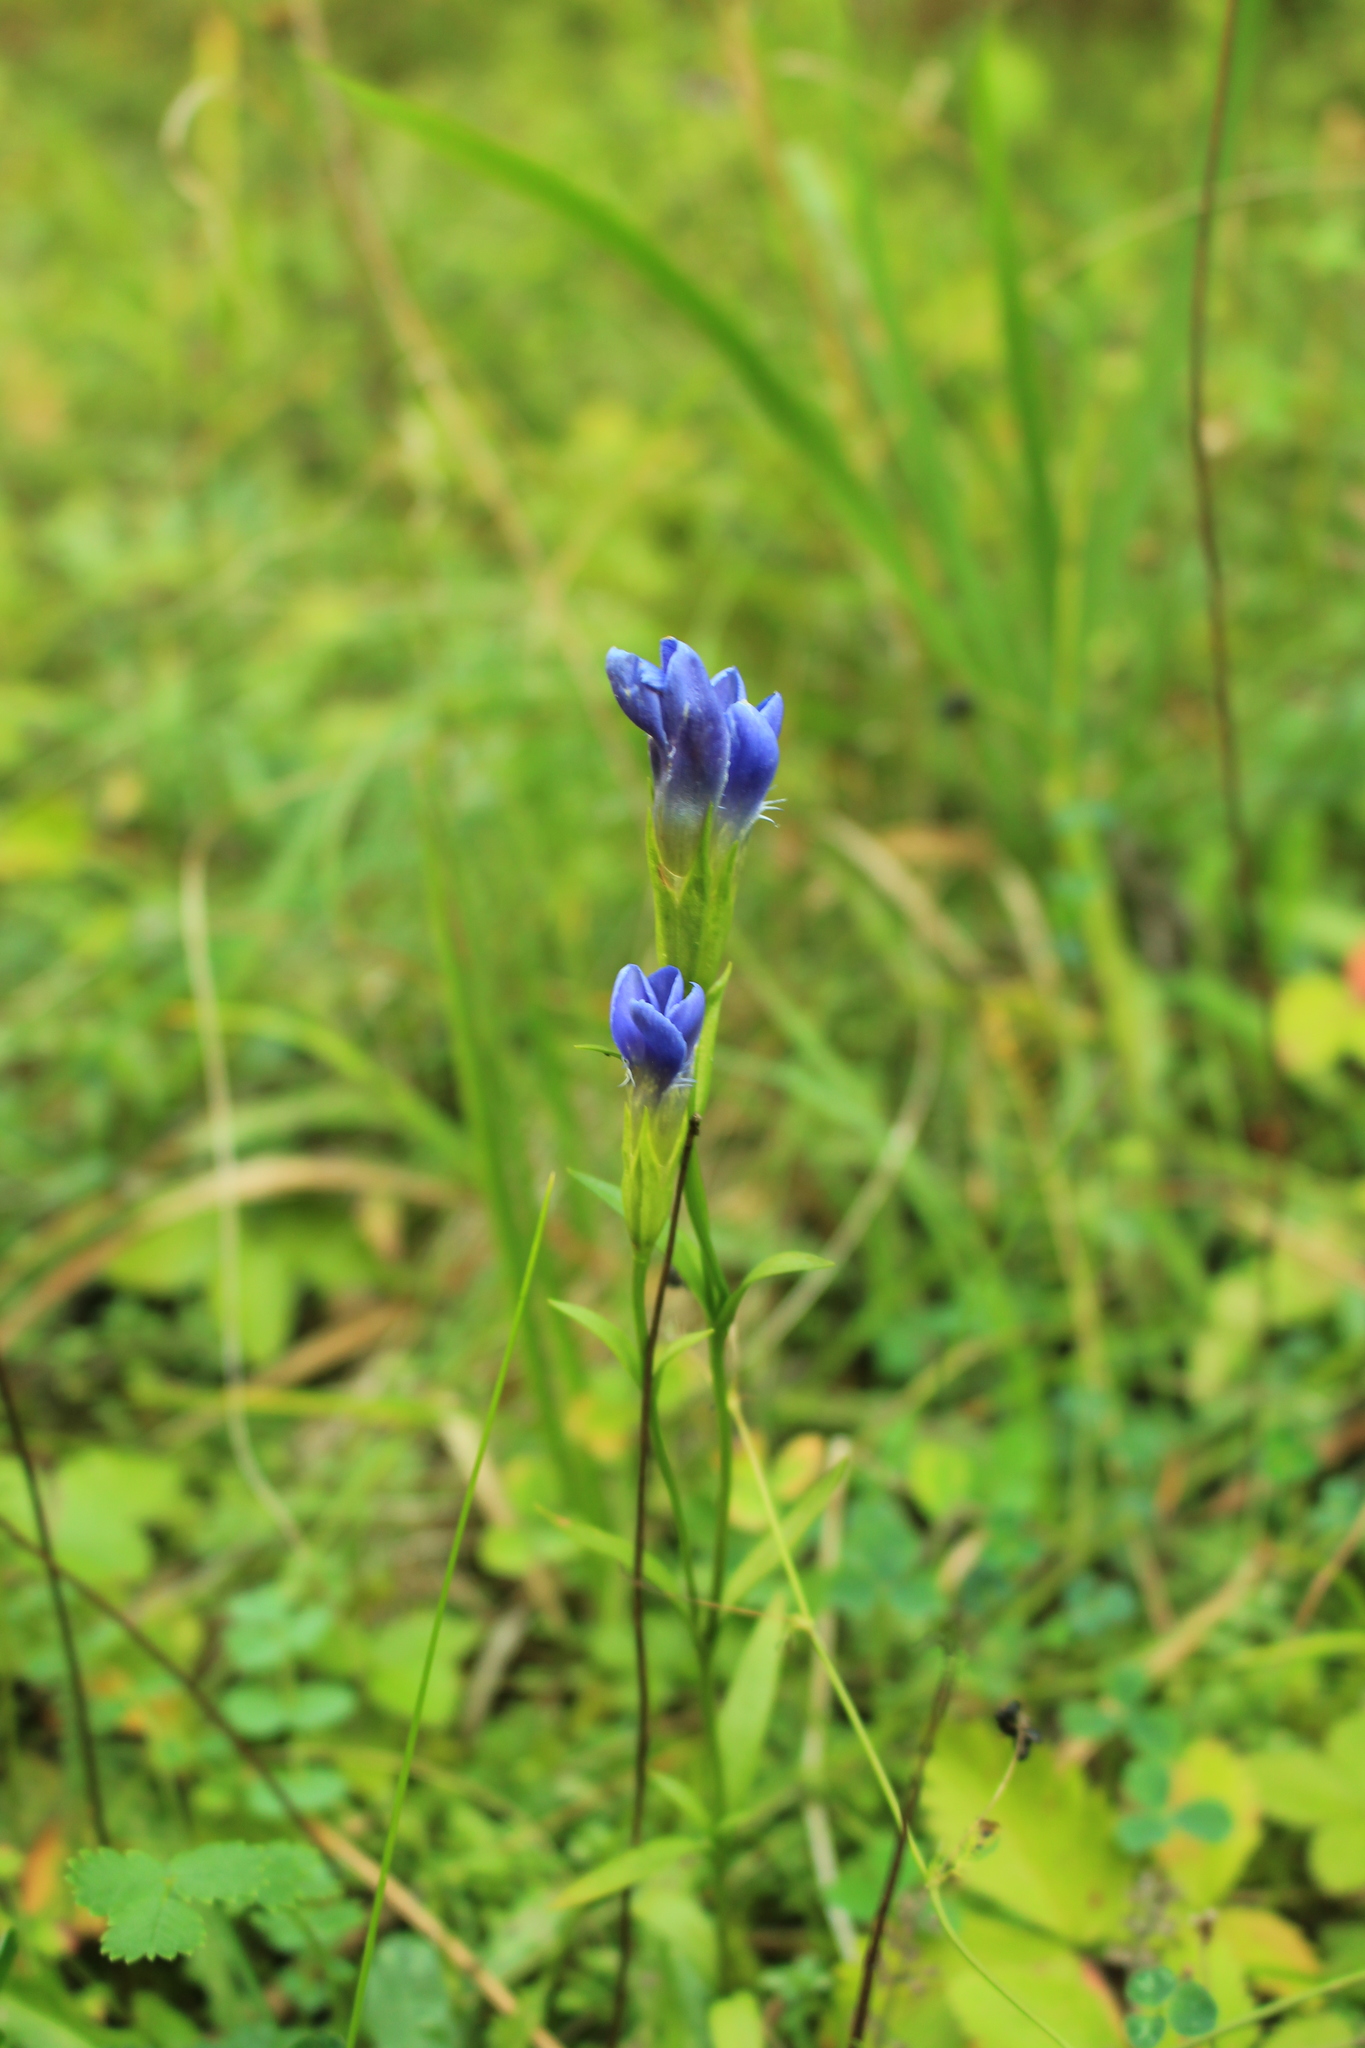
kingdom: Plantae
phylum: Tracheophyta
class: Magnoliopsida
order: Gentianales
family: Gentianaceae
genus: Gentianopsis
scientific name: Gentianopsis ciliata
